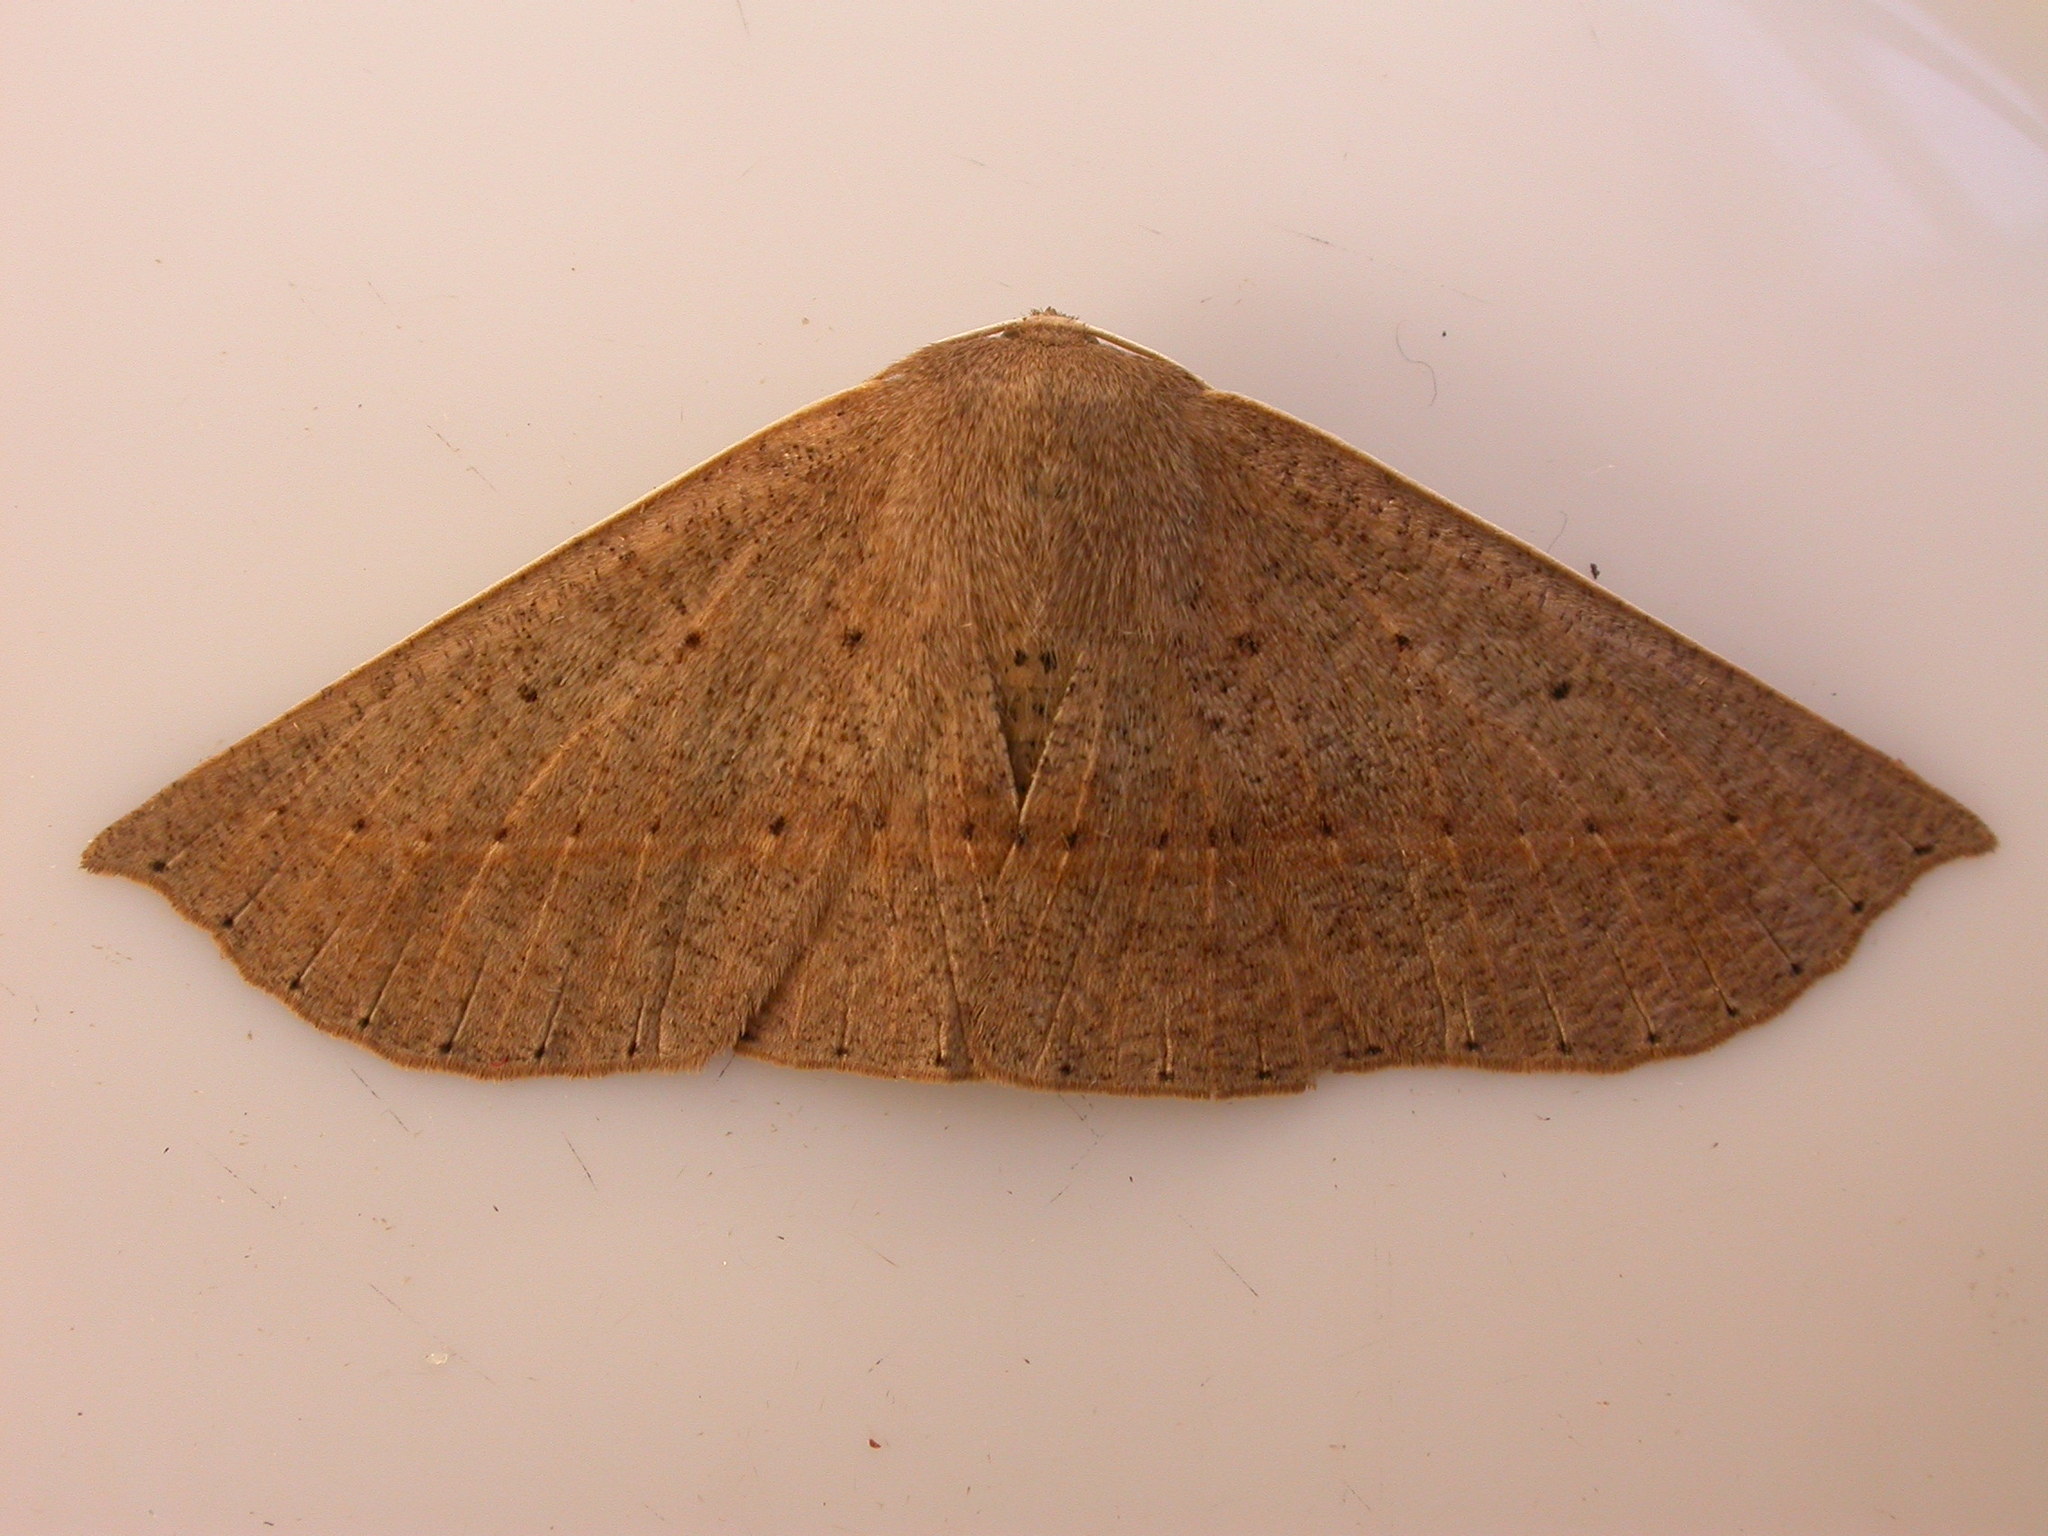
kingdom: Animalia
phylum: Arthropoda
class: Insecta
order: Lepidoptera
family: Geometridae
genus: Idiodes
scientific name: Idiodes siculoides
